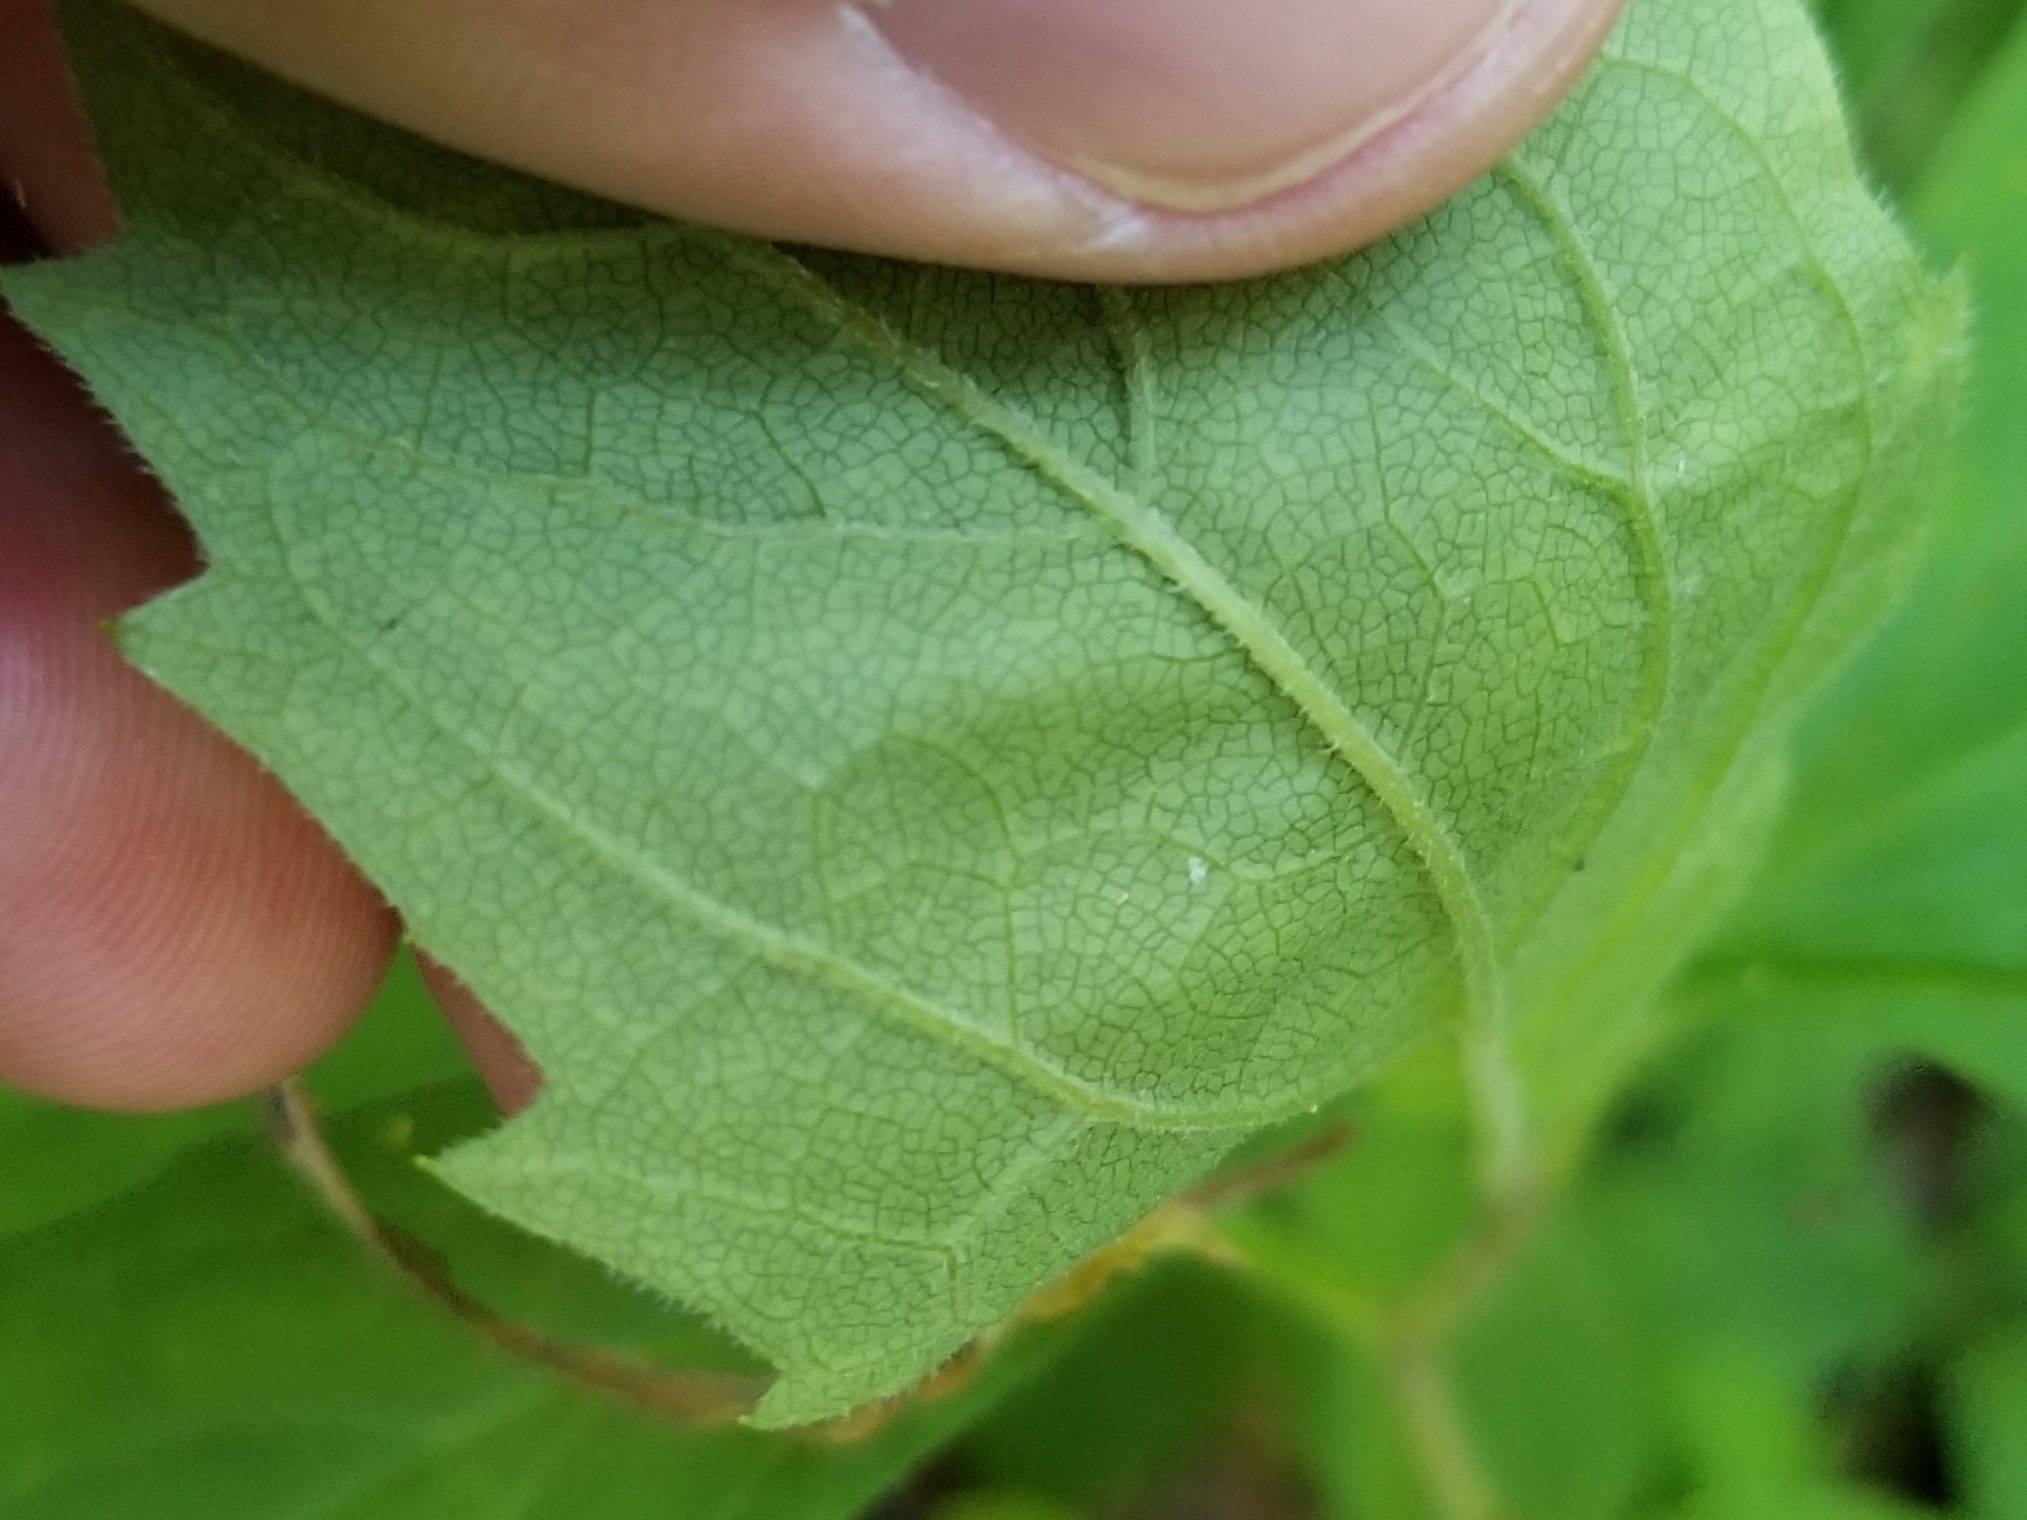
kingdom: Plantae
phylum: Tracheophyta
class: Magnoliopsida
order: Asterales
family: Asteraceae
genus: Oclemena
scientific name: Oclemena acuminata
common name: Mountain aster
